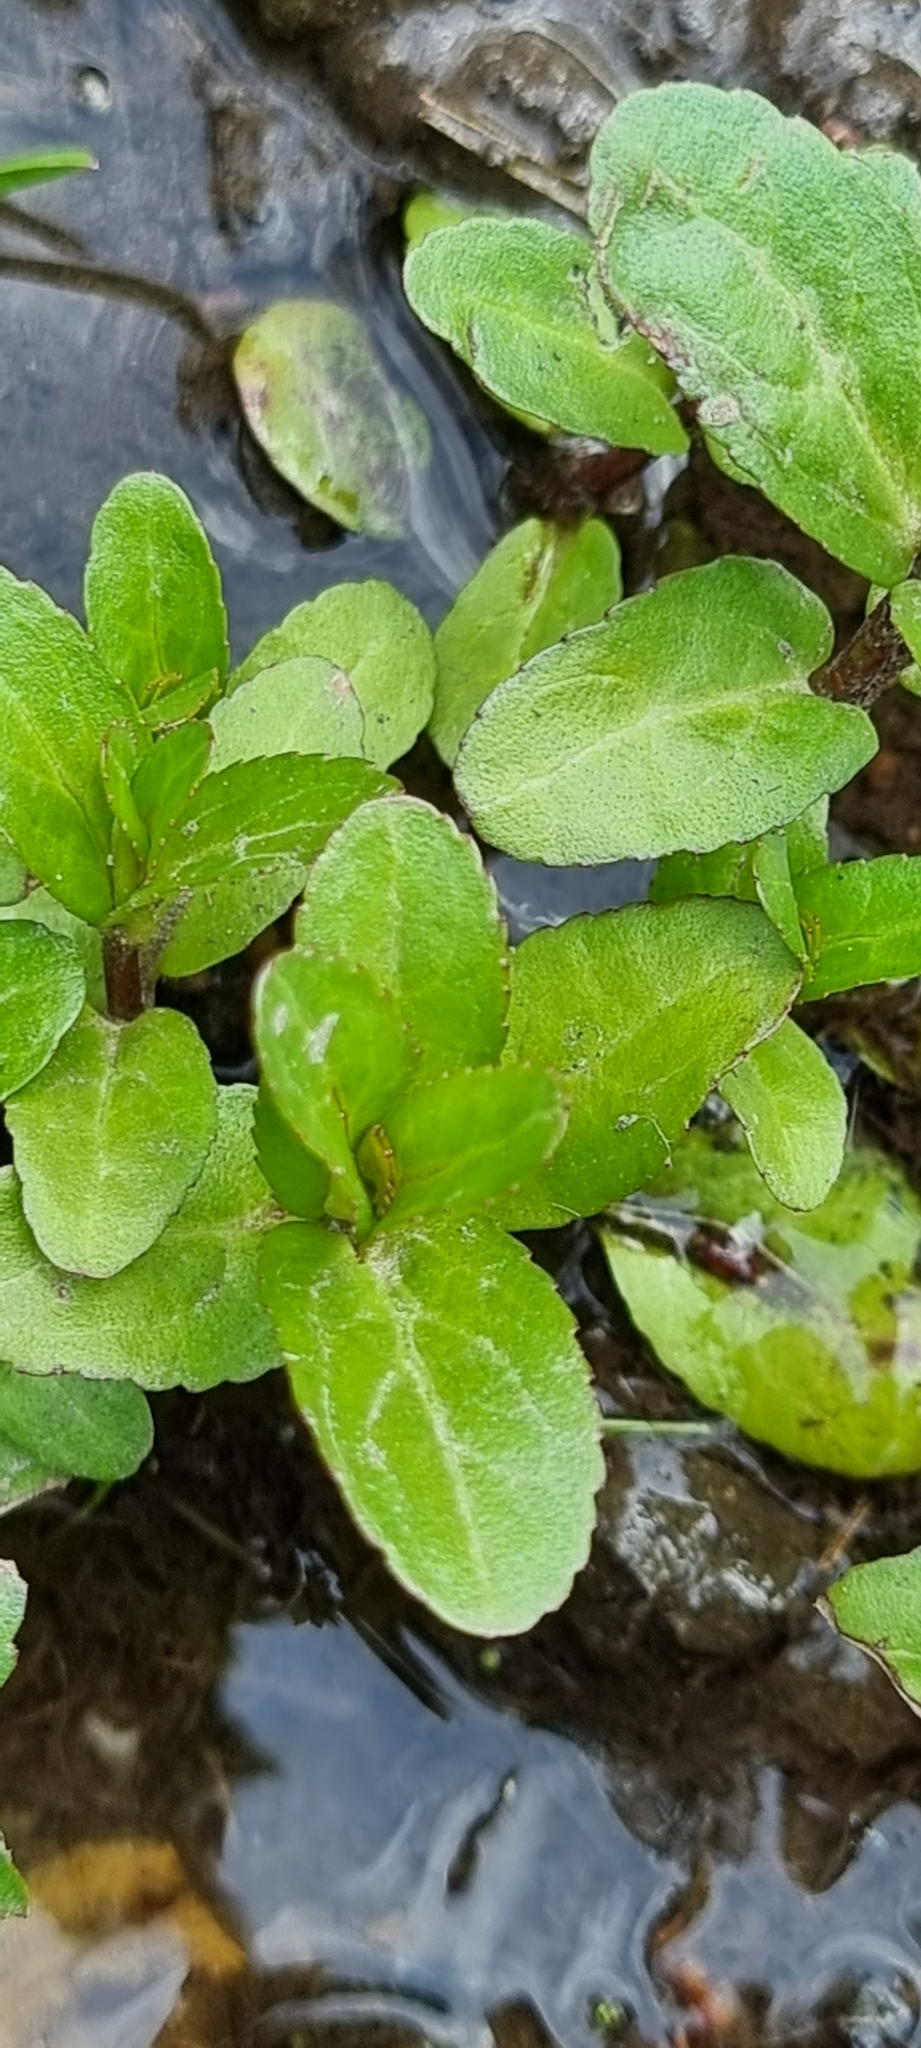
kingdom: Plantae
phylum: Tracheophyta
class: Magnoliopsida
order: Lamiales
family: Plantaginaceae
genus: Veronica
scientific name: Veronica beccabunga
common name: Brooklime
